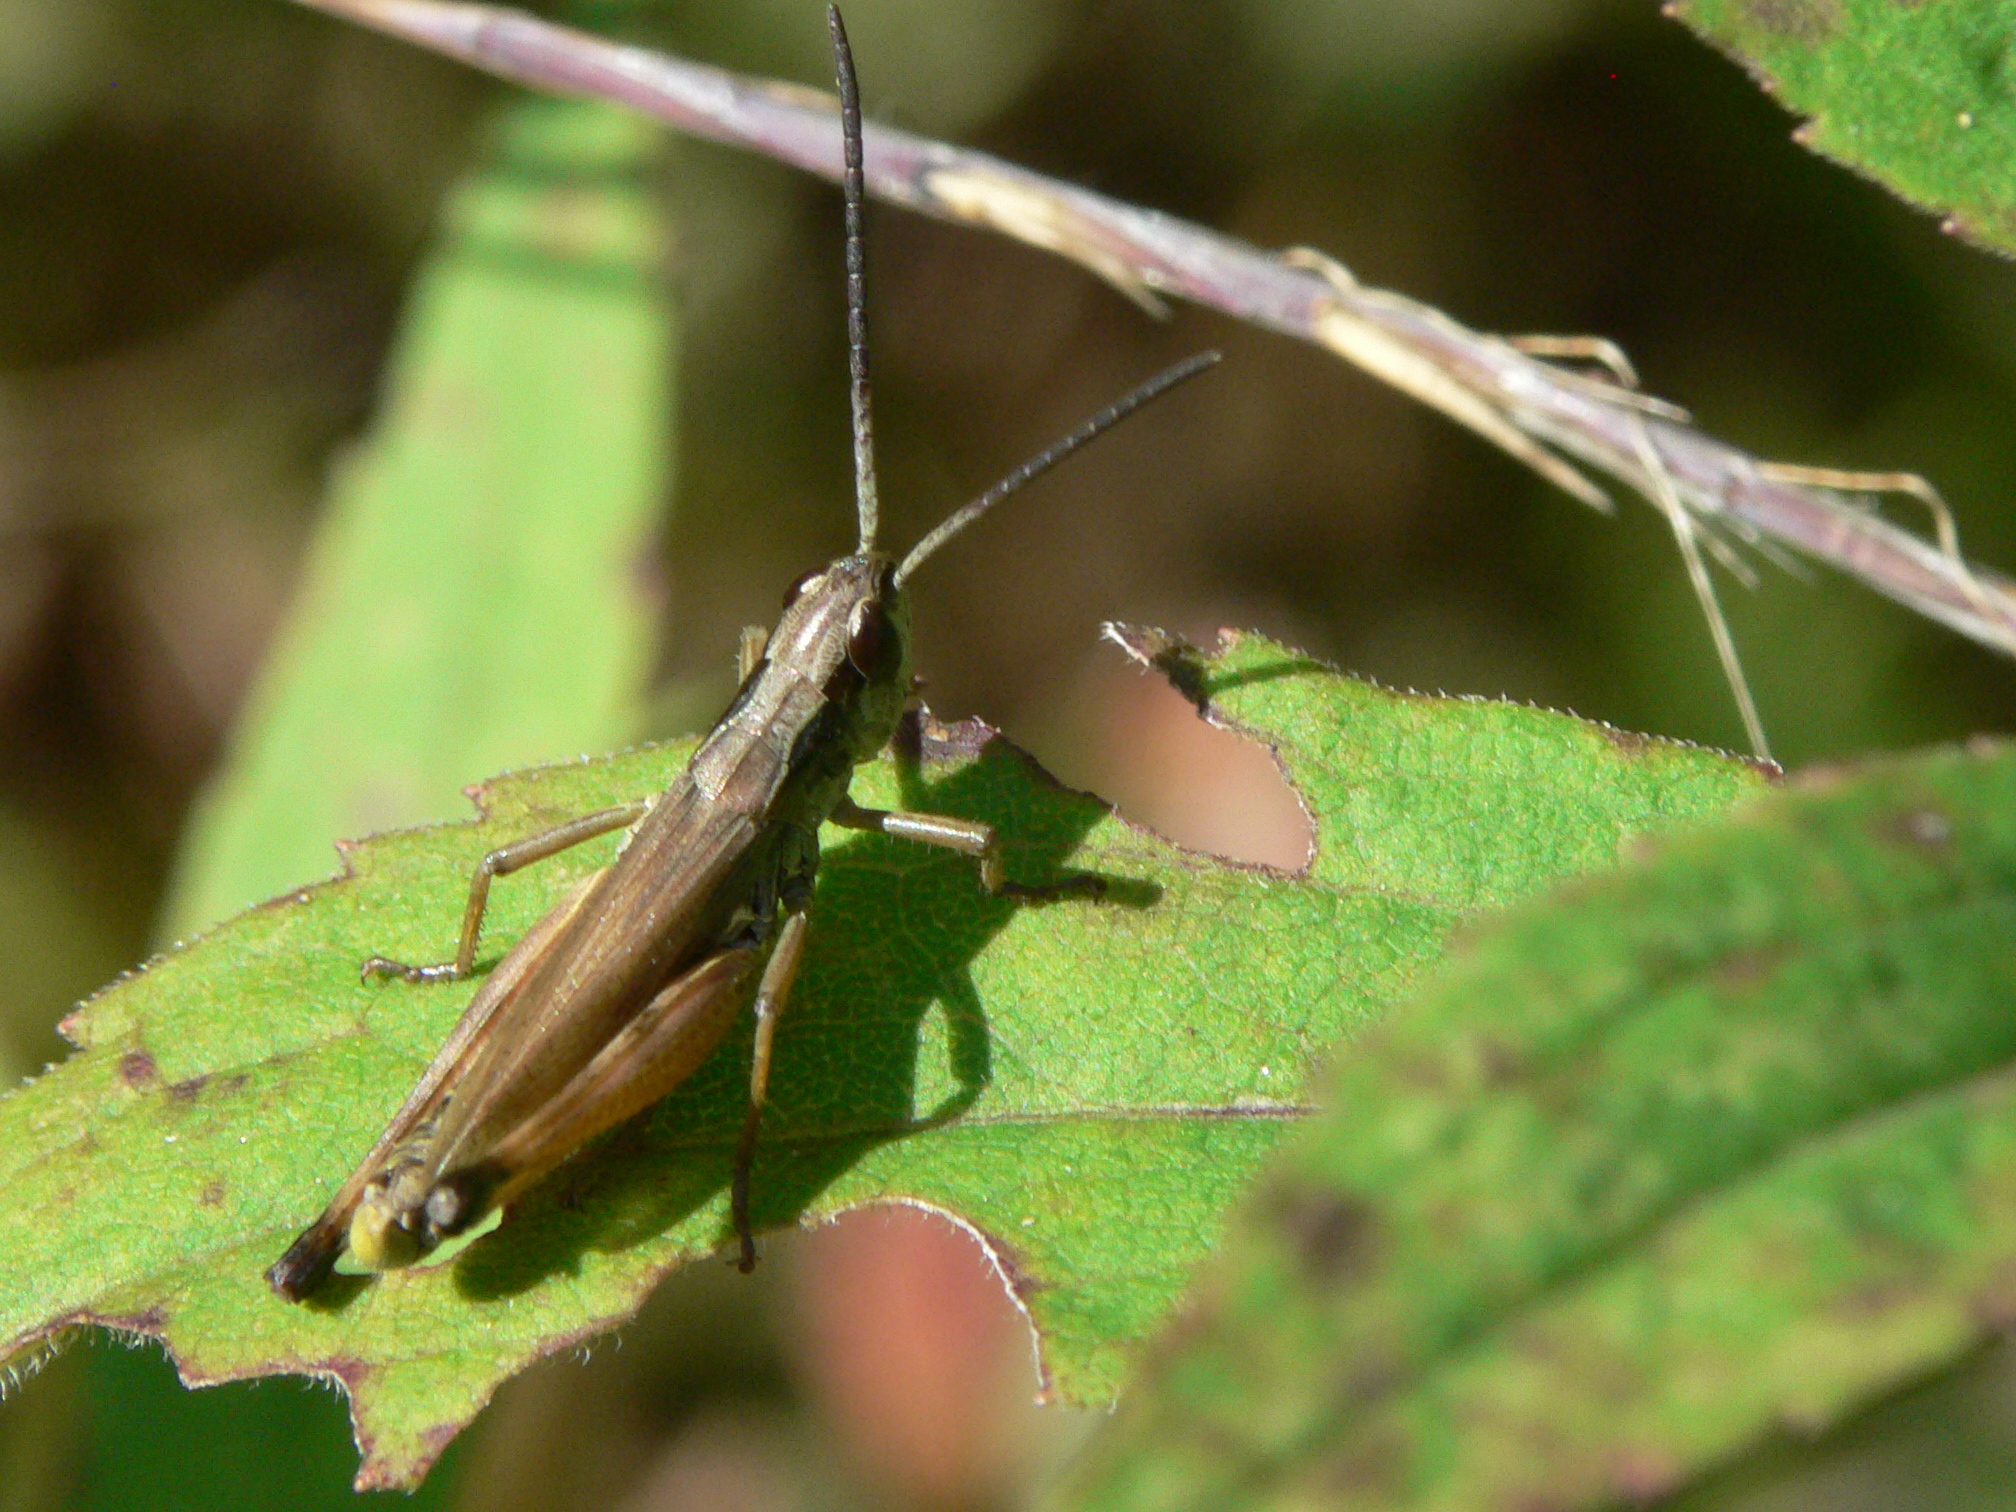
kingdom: Animalia
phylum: Arthropoda
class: Insecta
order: Orthoptera
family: Acrididae
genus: Pseudochorthippus
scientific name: Pseudochorthippus curtipennis
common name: Marsh meadow grasshopper
